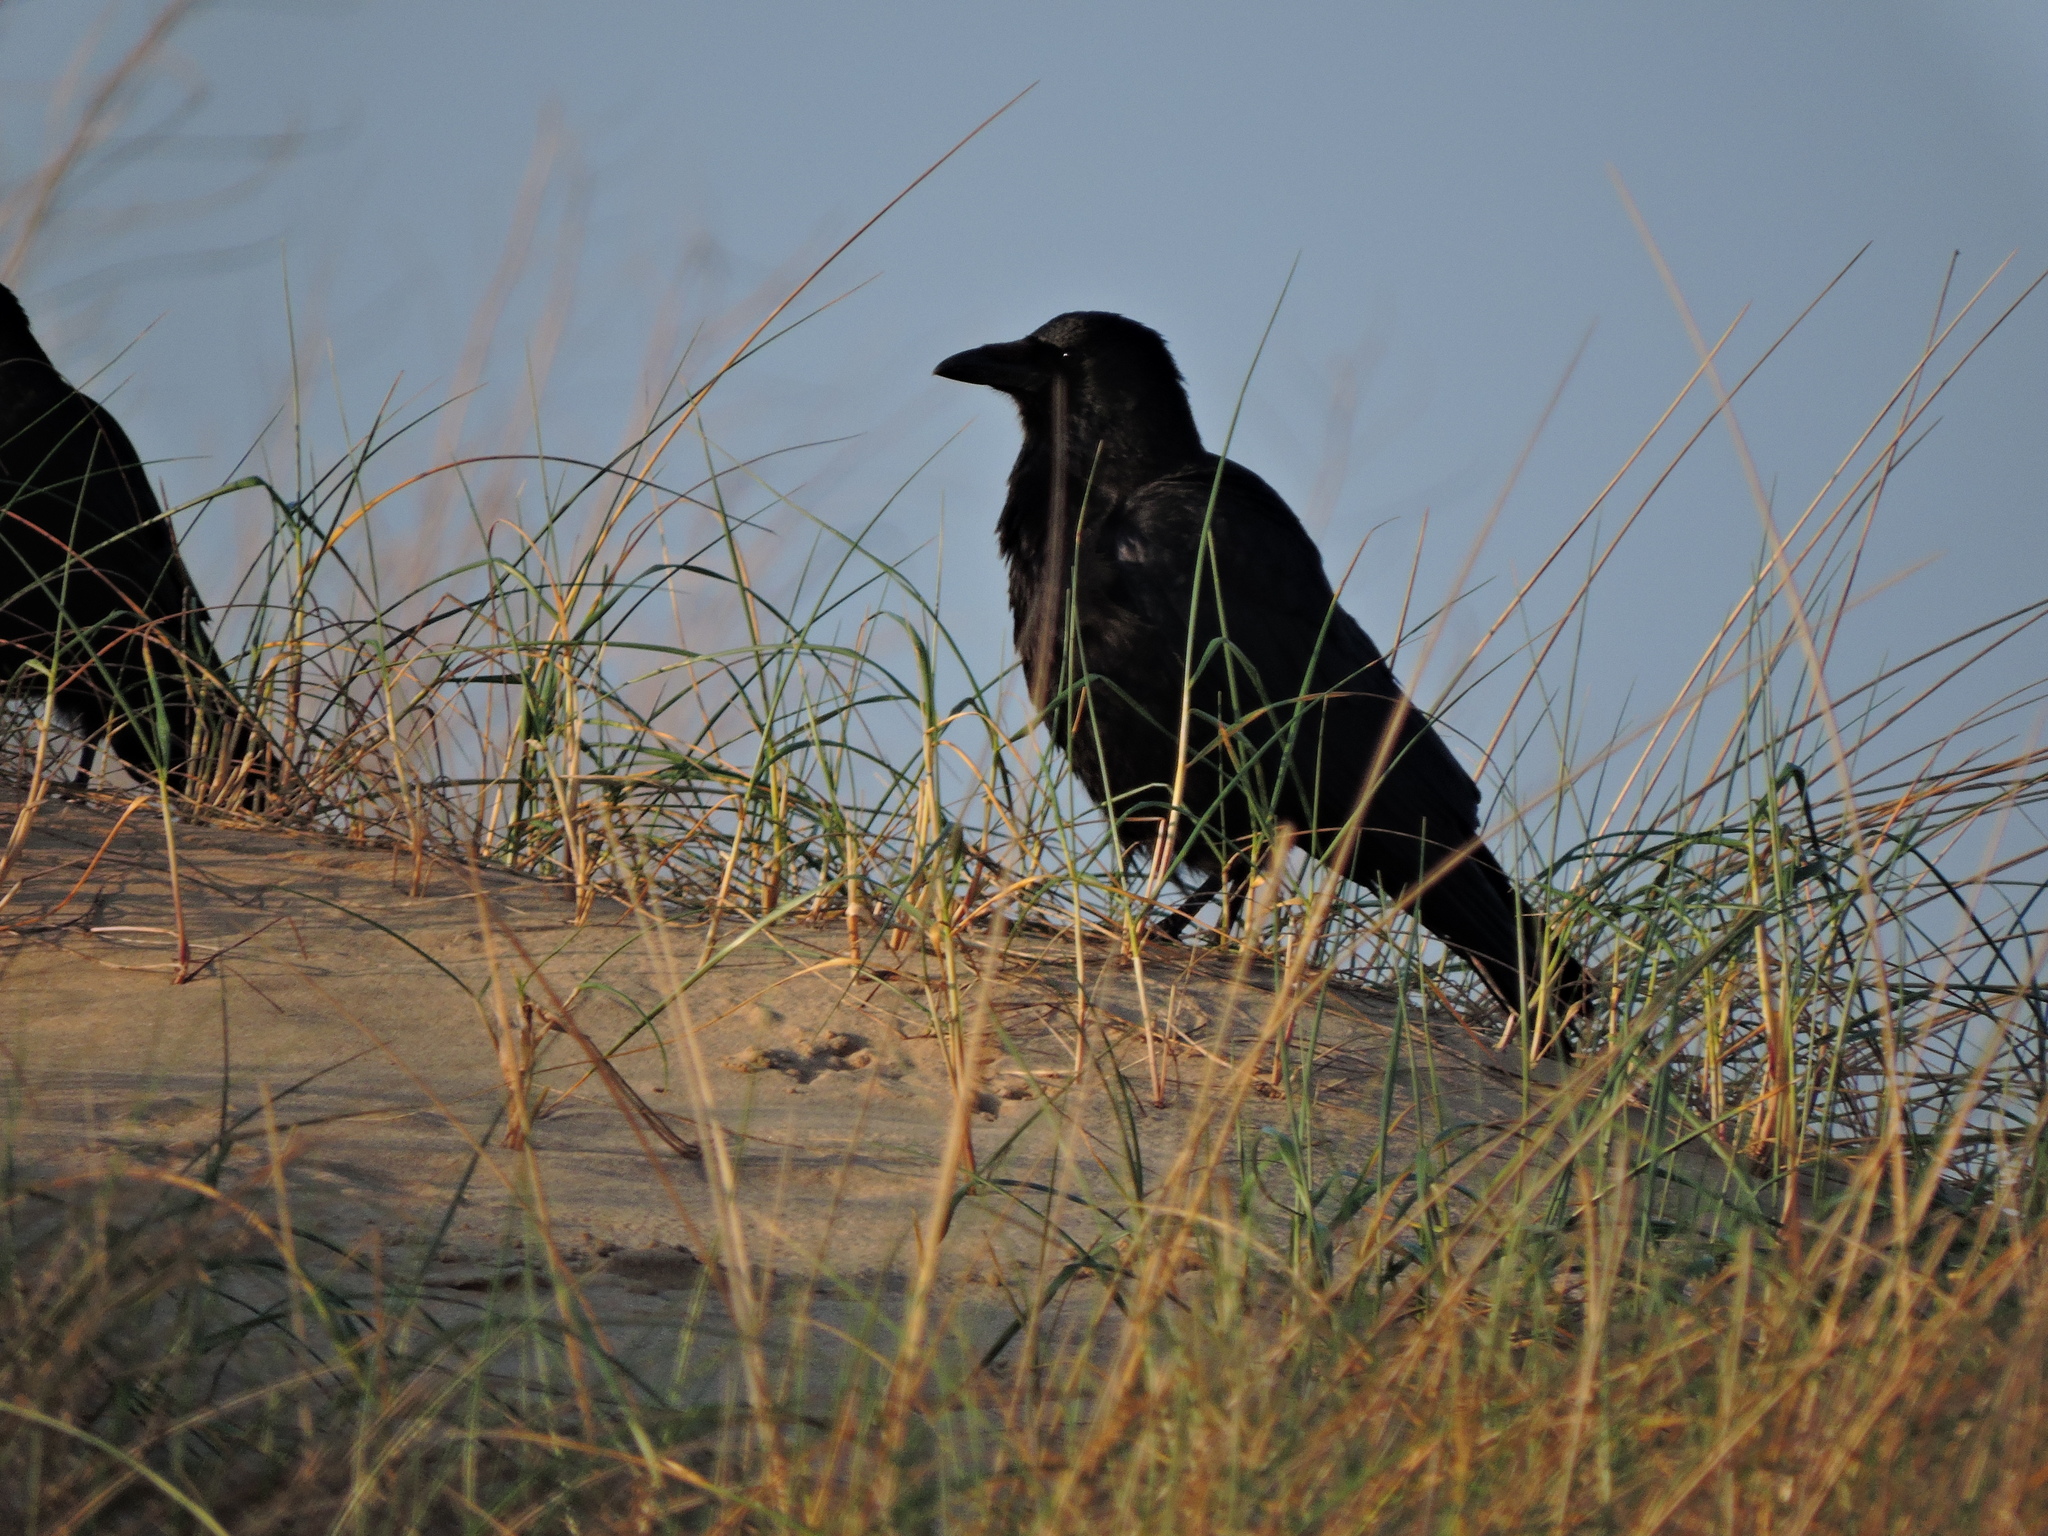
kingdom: Animalia
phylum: Chordata
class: Aves
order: Passeriformes
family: Corvidae
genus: Corvus
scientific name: Corvus corone
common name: Carrion crow
